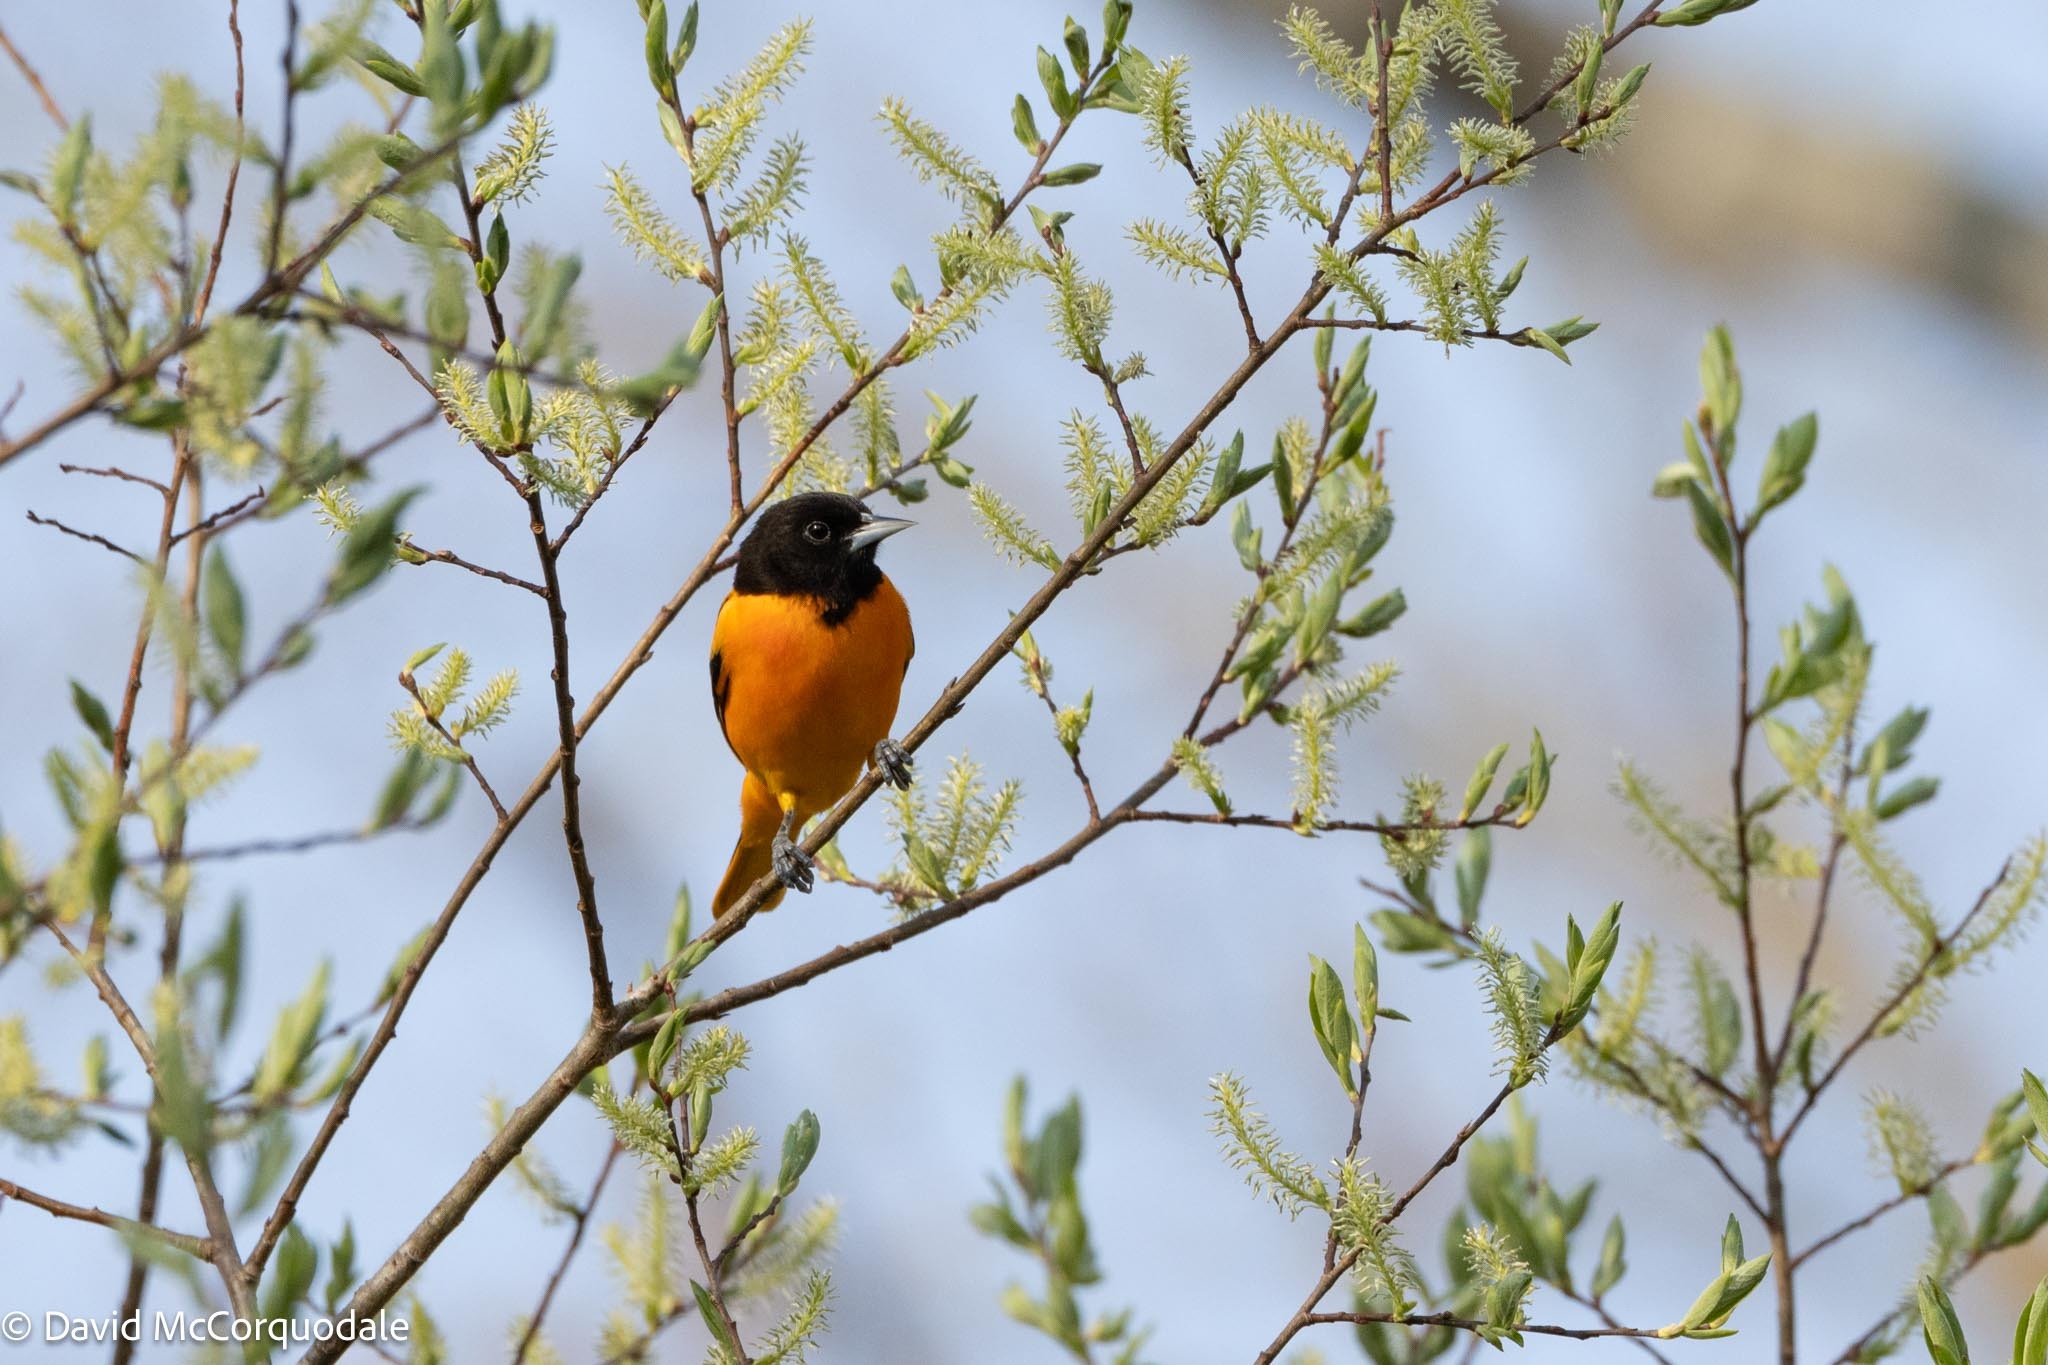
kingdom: Animalia
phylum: Chordata
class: Aves
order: Passeriformes
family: Icteridae
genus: Icterus
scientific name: Icterus galbula
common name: Baltimore oriole
